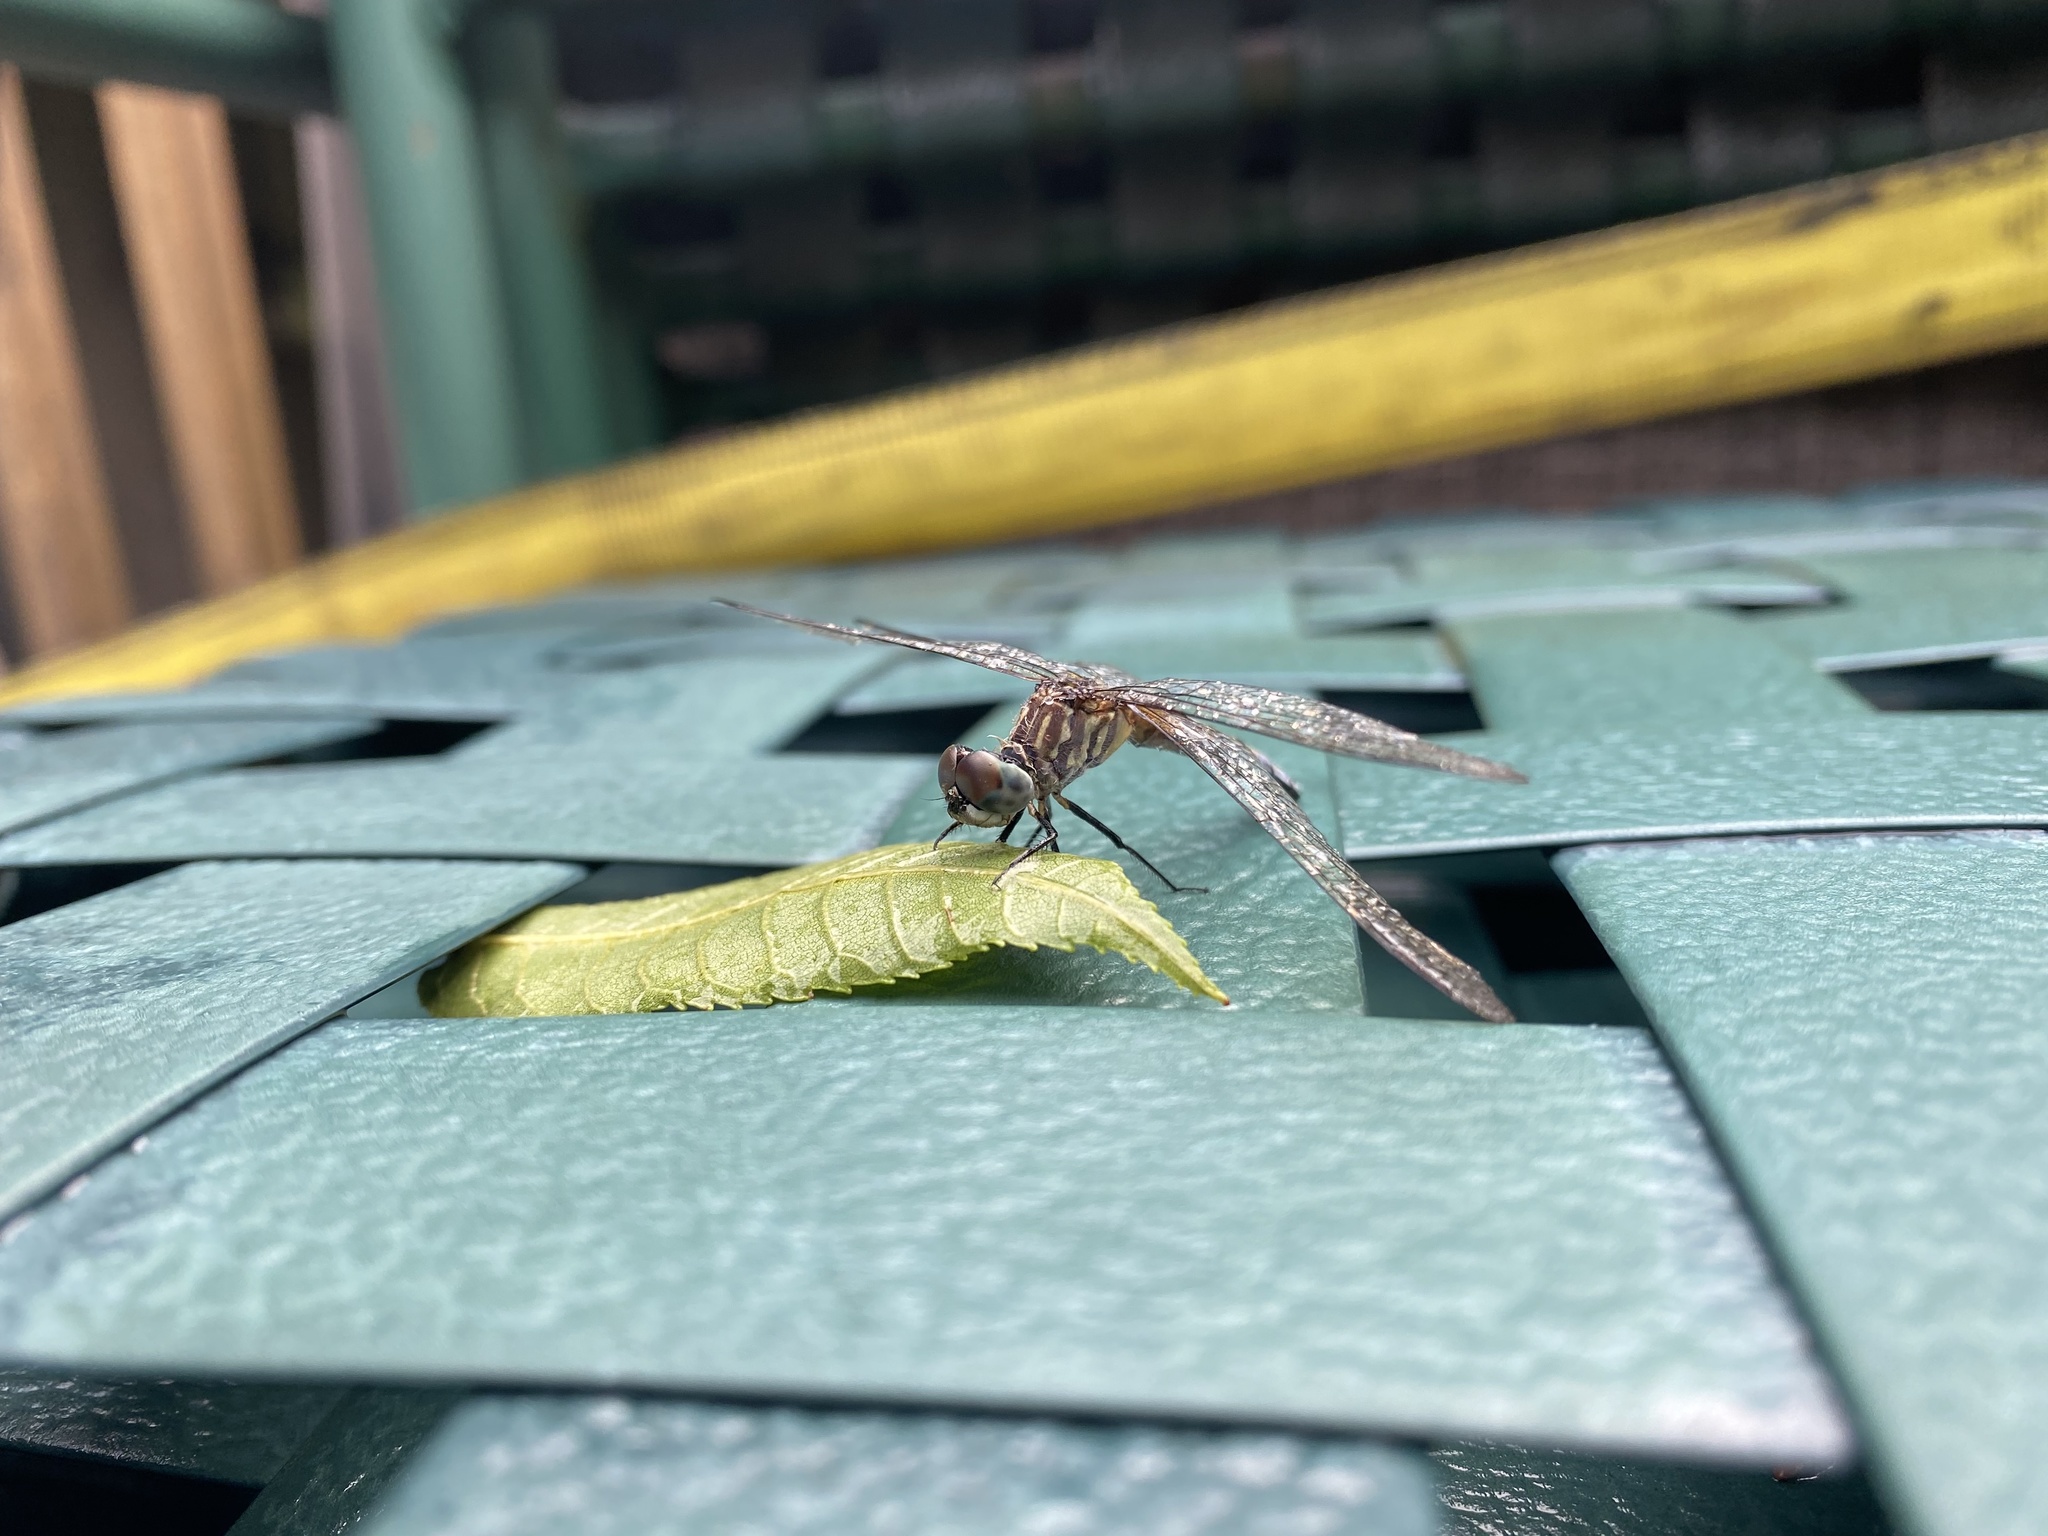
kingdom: Animalia
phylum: Arthropoda
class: Insecta
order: Odonata
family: Libellulidae
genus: Pachydiplax
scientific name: Pachydiplax longipennis
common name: Blue dasher
